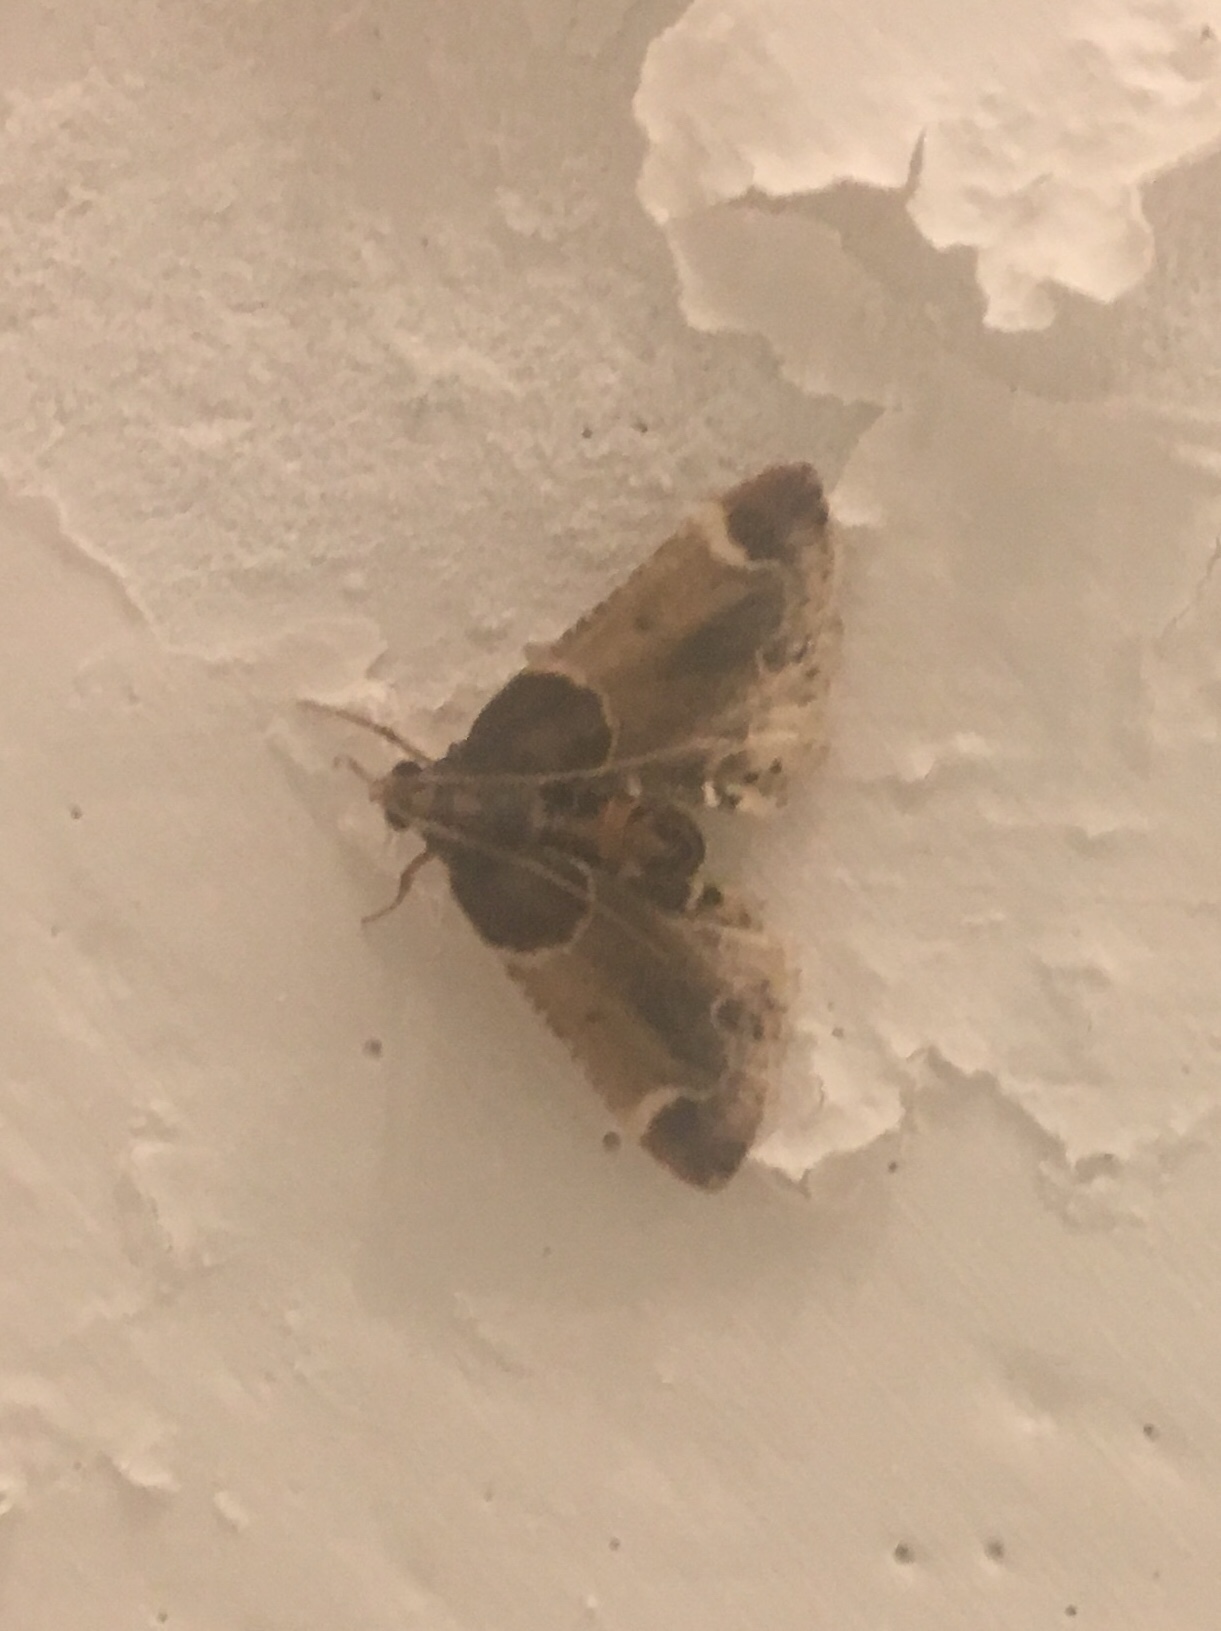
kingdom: Animalia
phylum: Arthropoda
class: Insecta
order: Lepidoptera
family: Pyralidae
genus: Pyralis
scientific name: Pyralis farinalis
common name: Meal moth
